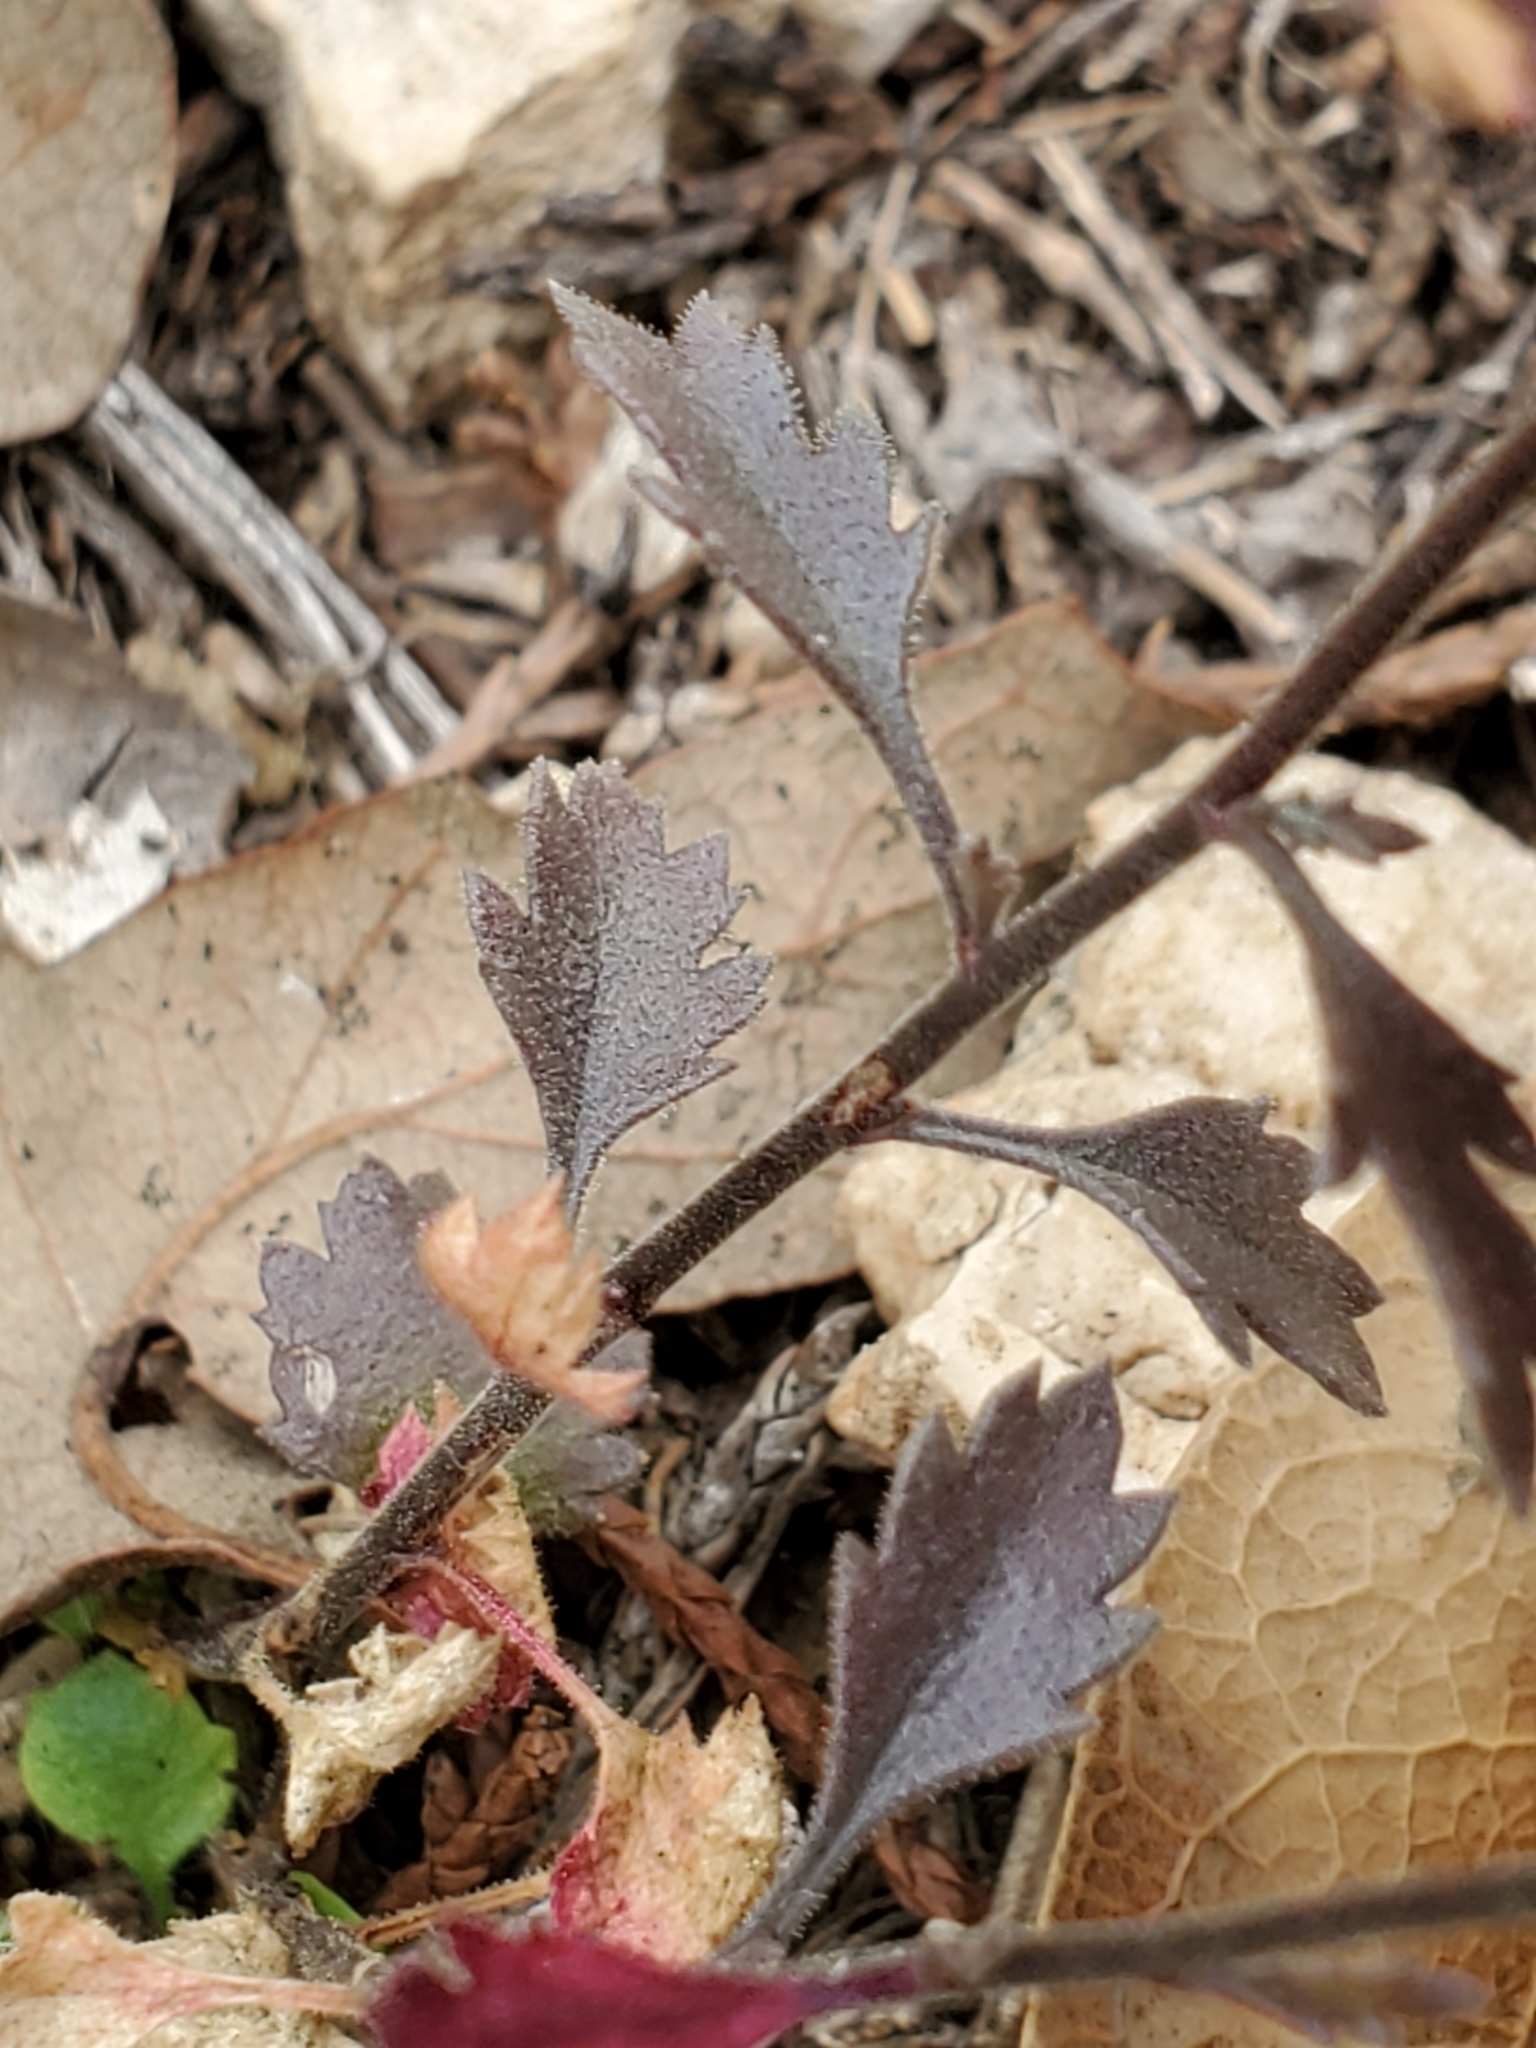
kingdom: Plantae
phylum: Tracheophyta
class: Magnoliopsida
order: Ericales
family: Polemoniaceae
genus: Giliastrum
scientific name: Giliastrum incisum
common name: Splitleaf gilia
